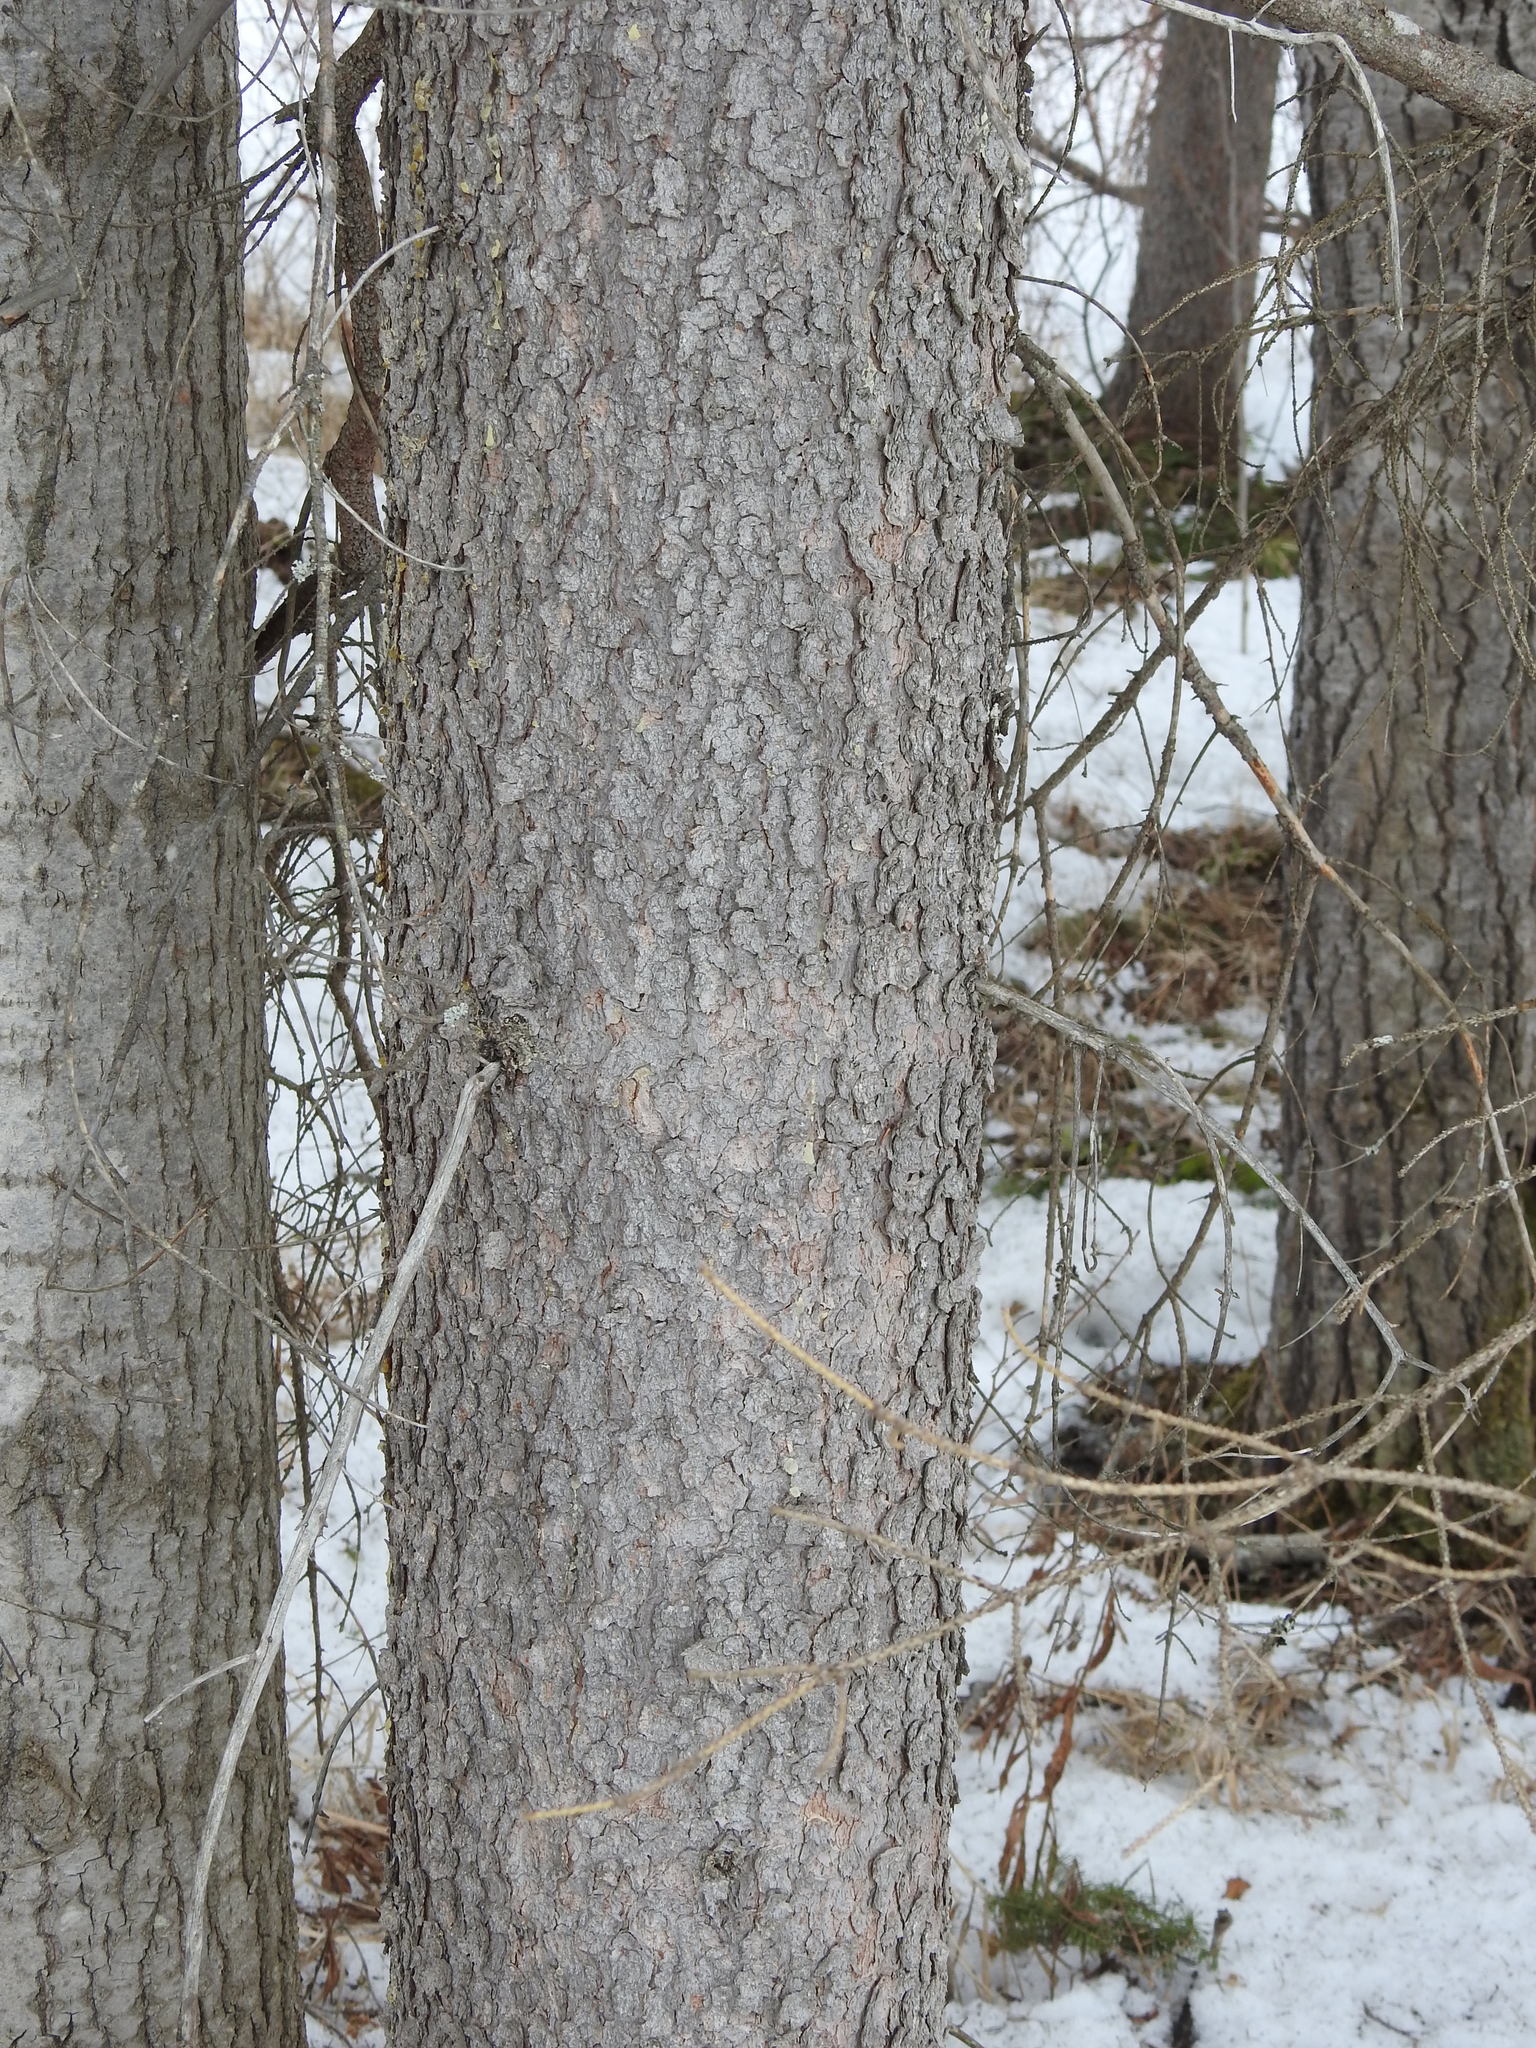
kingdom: Plantae
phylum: Tracheophyta
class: Pinopsida
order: Pinales
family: Pinaceae
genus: Picea
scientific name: Picea glauca
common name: White spruce
